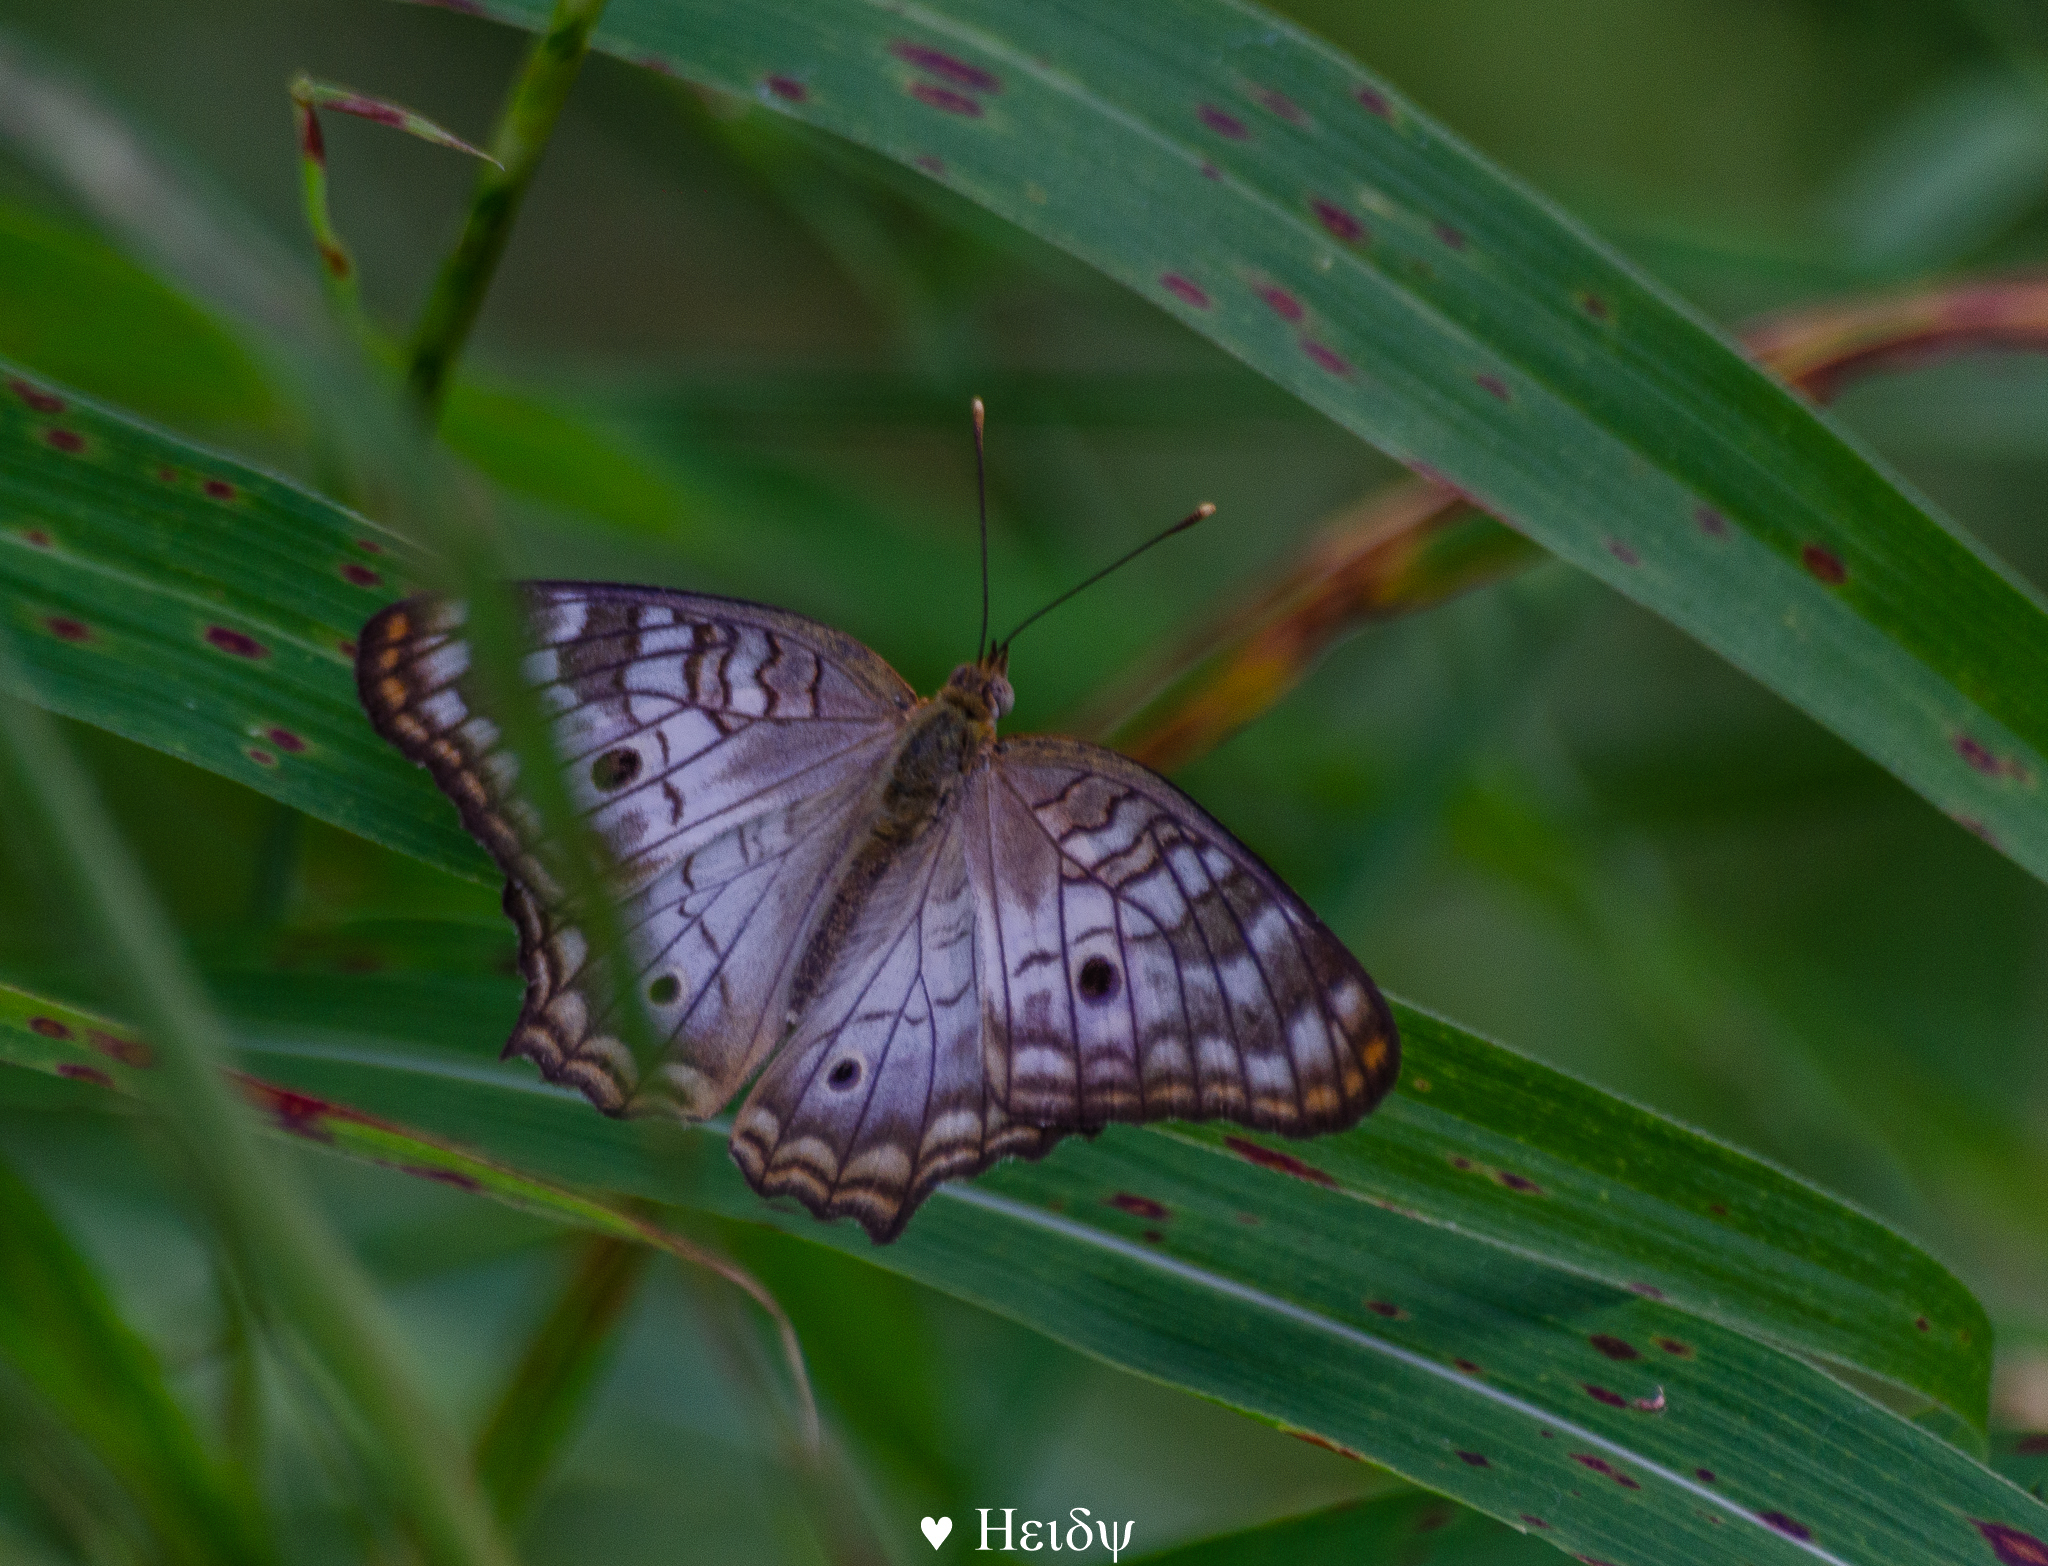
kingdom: Animalia
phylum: Arthropoda
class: Insecta
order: Lepidoptera
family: Nymphalidae
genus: Anartia
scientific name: Anartia jatrophae
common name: White peacock
